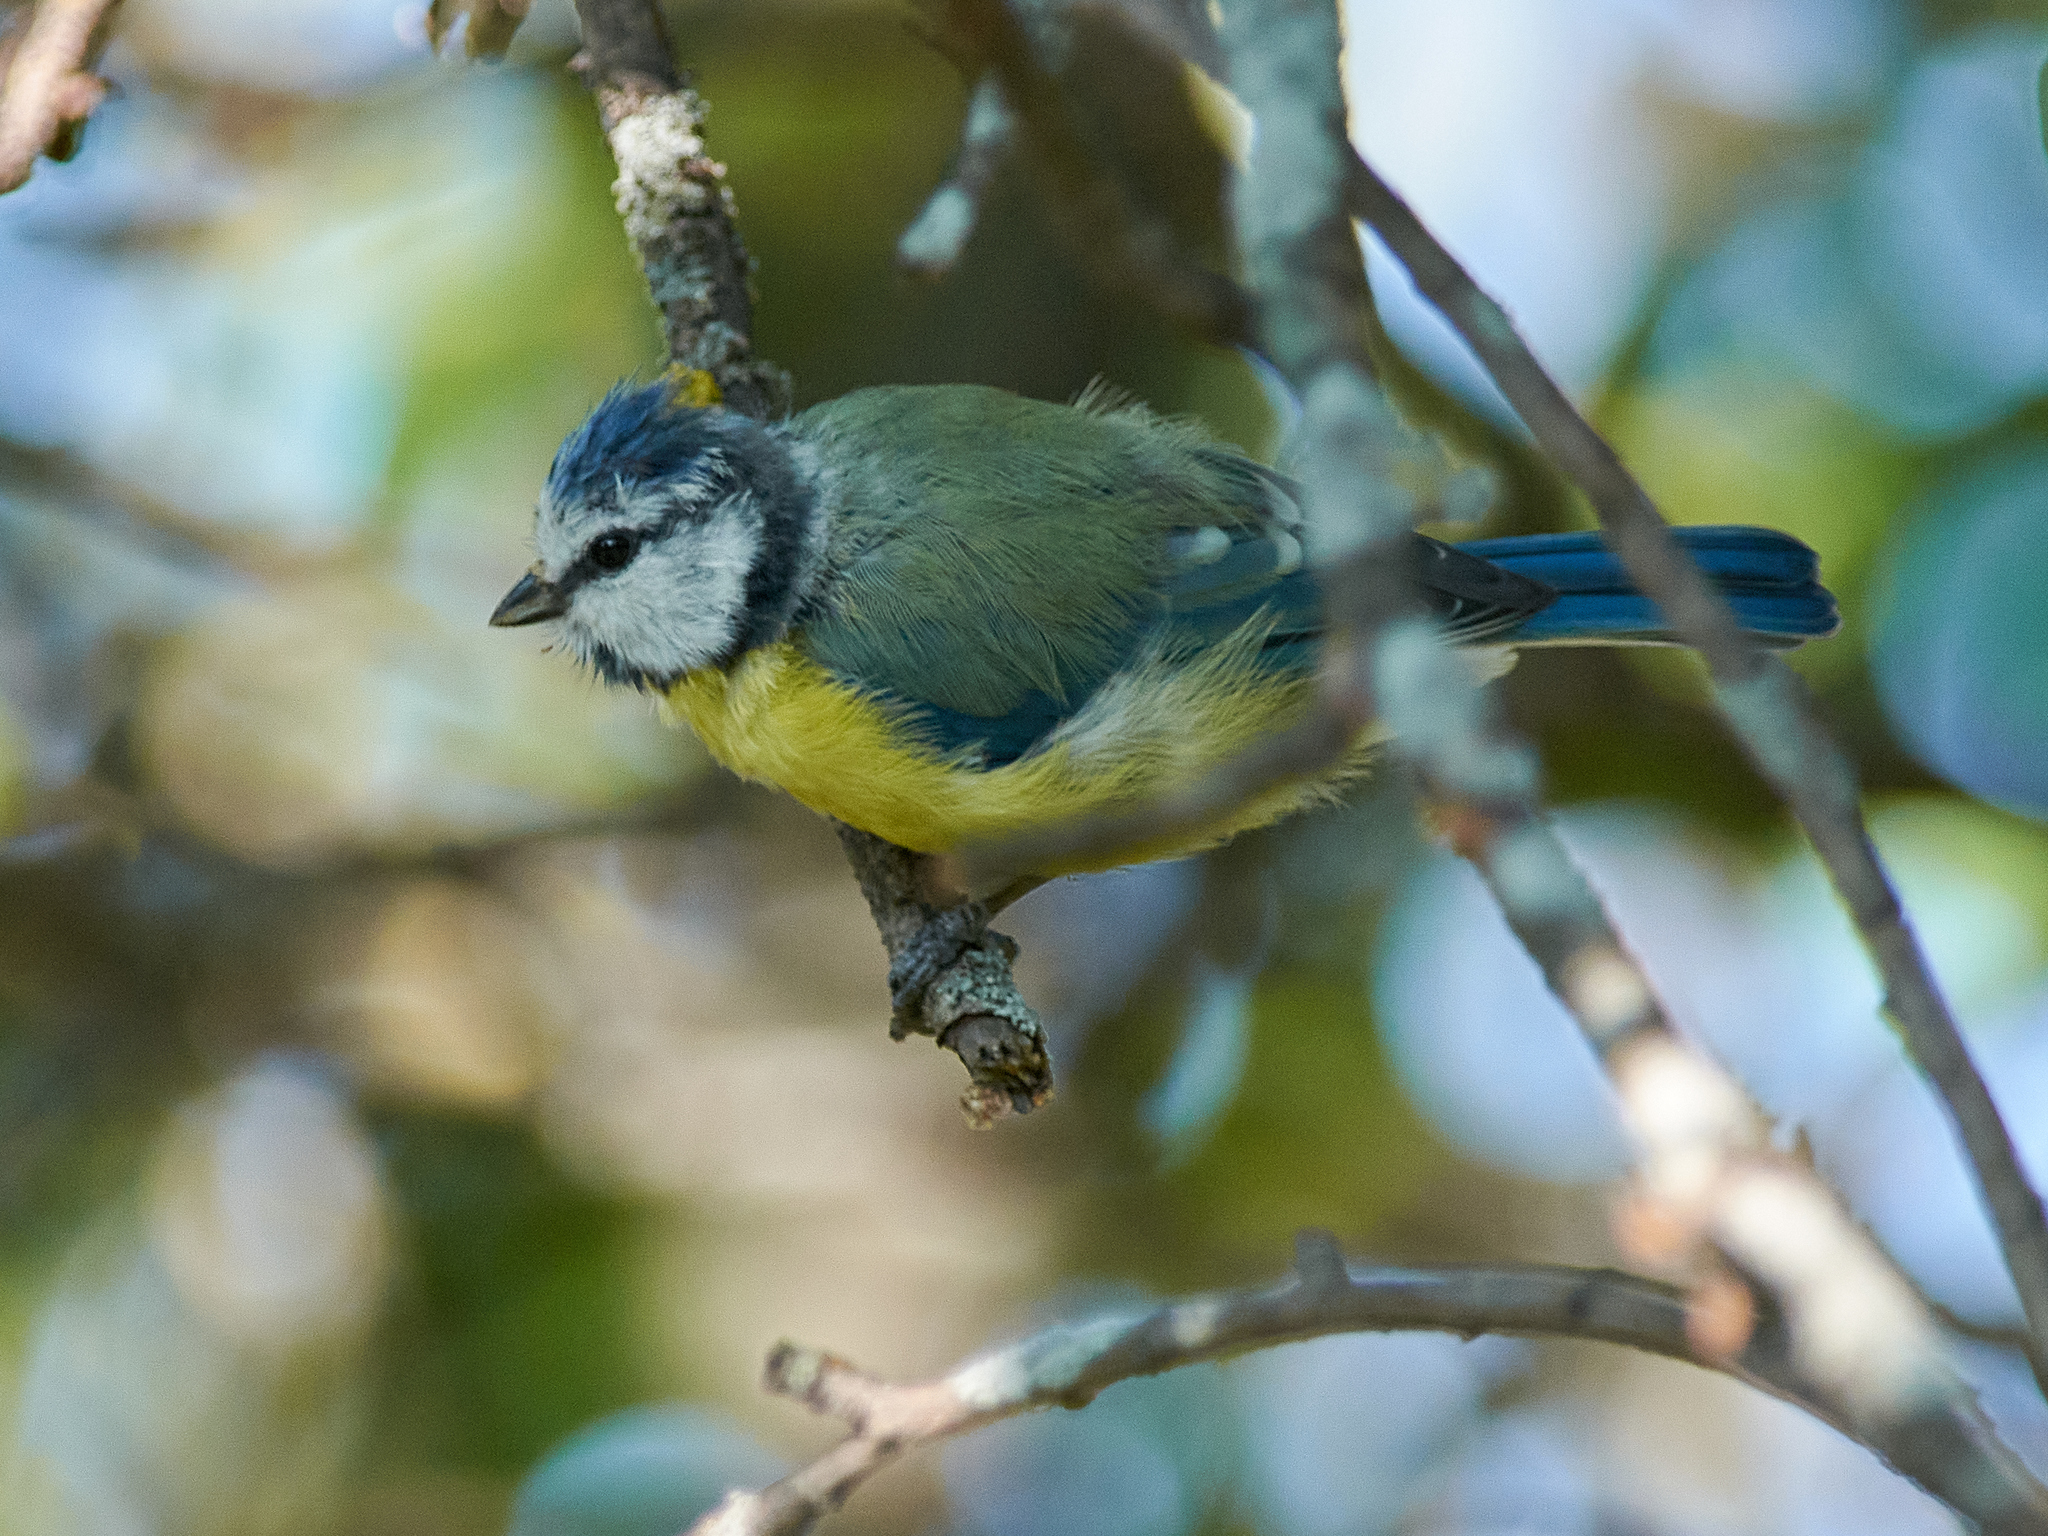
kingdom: Animalia
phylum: Chordata
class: Aves
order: Passeriformes
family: Paridae
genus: Cyanistes
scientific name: Cyanistes caeruleus
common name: Eurasian blue tit
